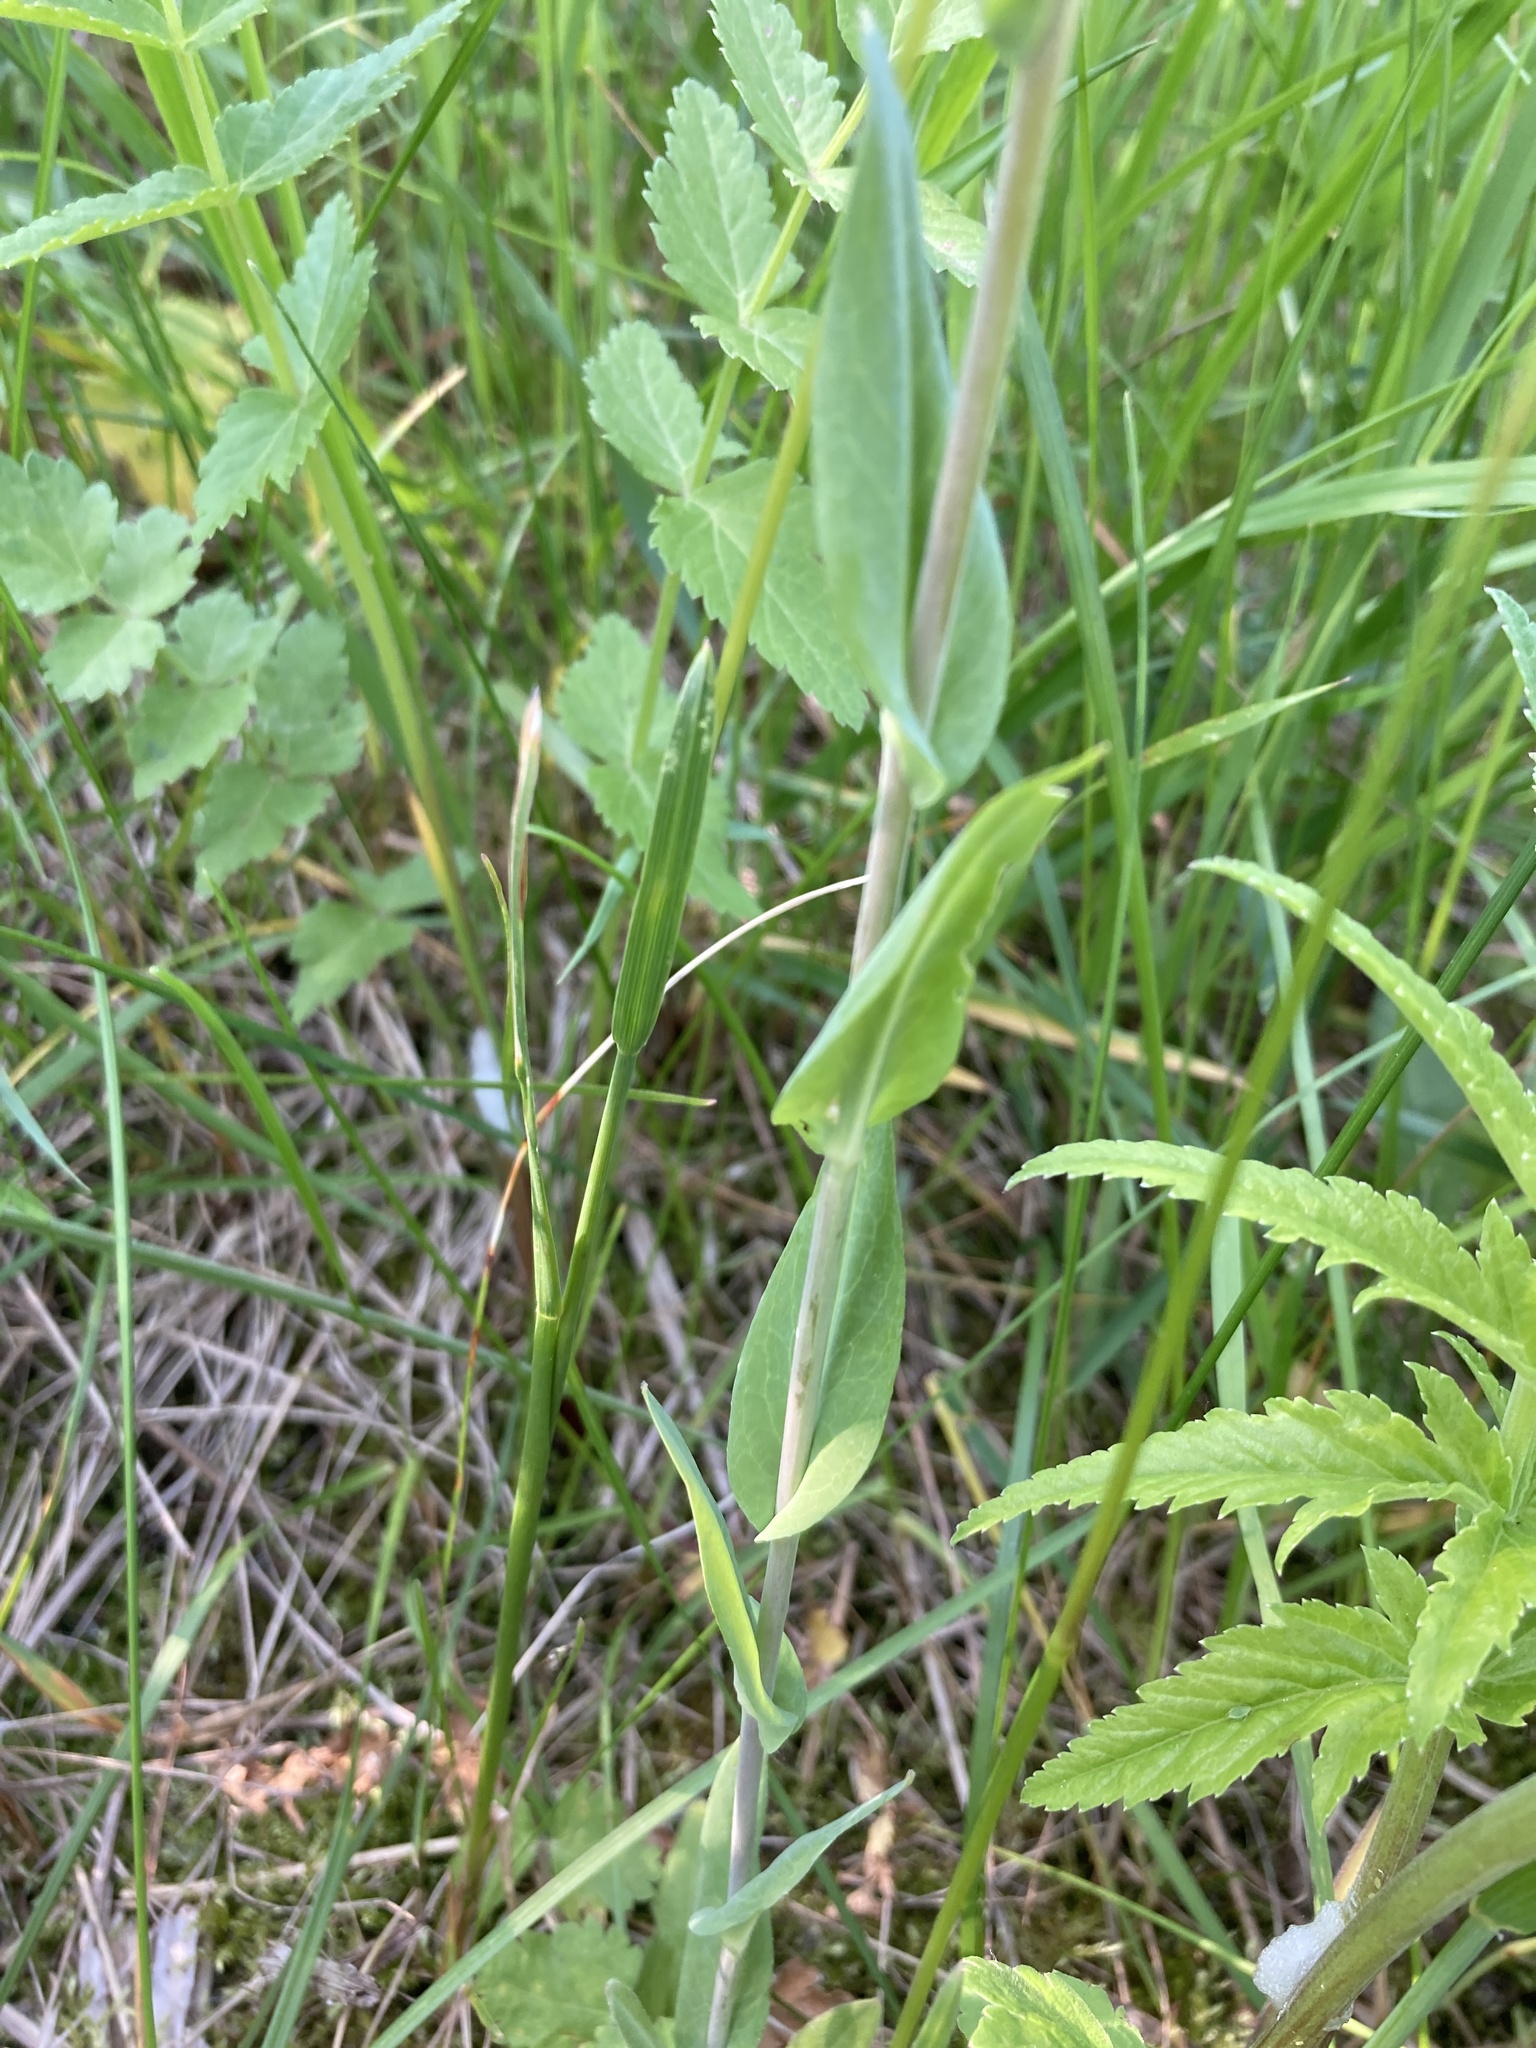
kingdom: Plantae
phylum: Tracheophyta
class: Magnoliopsida
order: Brassicales
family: Brassicaceae
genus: Turritis
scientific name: Turritis glabra
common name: Tower rockcress
